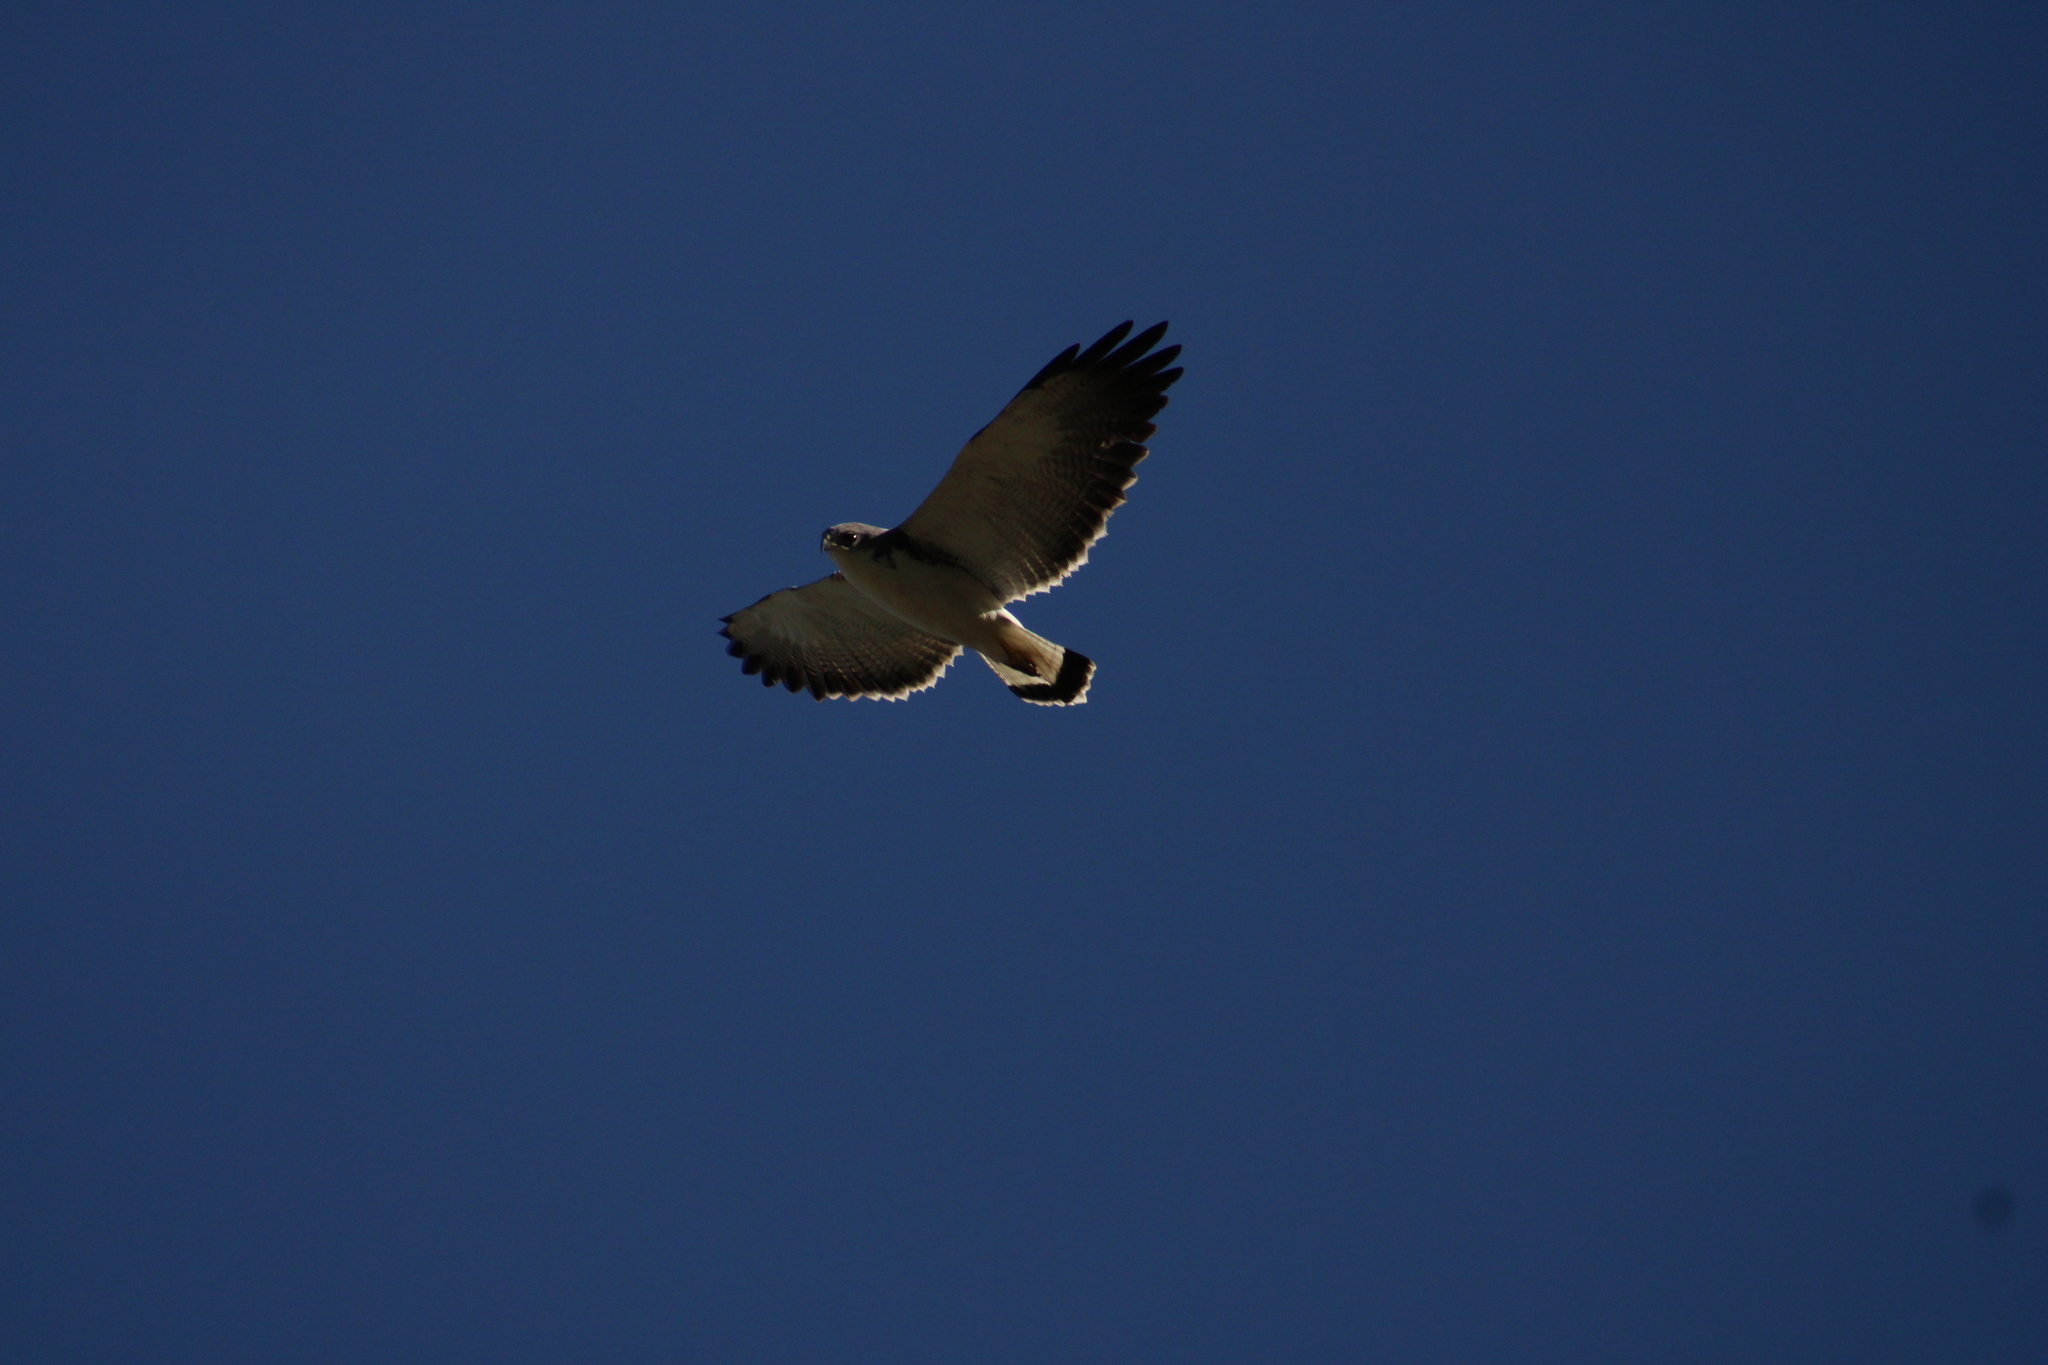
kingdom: Animalia
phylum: Chordata
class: Aves
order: Accipitriformes
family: Accipitridae
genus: Buteo
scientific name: Buteo polyosoma
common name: Variable hawk
